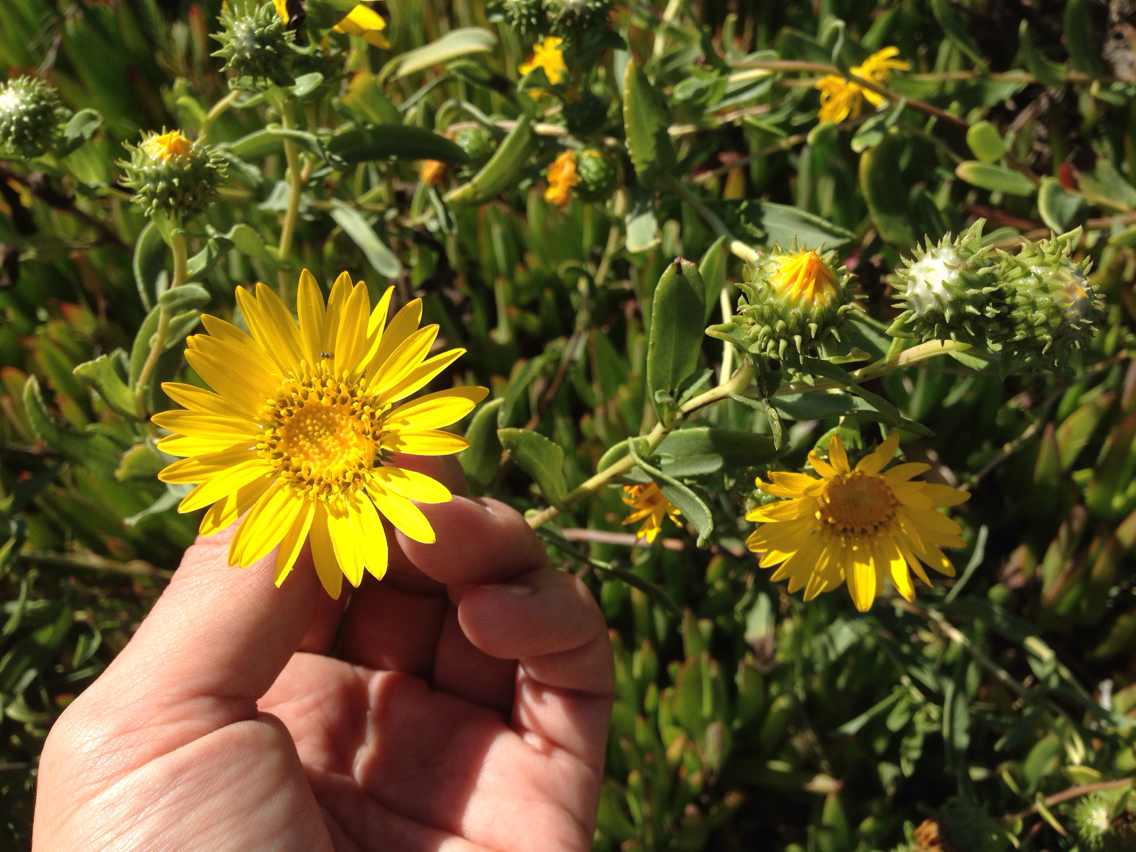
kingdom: Plantae
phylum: Tracheophyta
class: Magnoliopsida
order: Asterales
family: Asteraceae
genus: Grindelia
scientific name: Grindelia hirsutula
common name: Hairy gumweed
